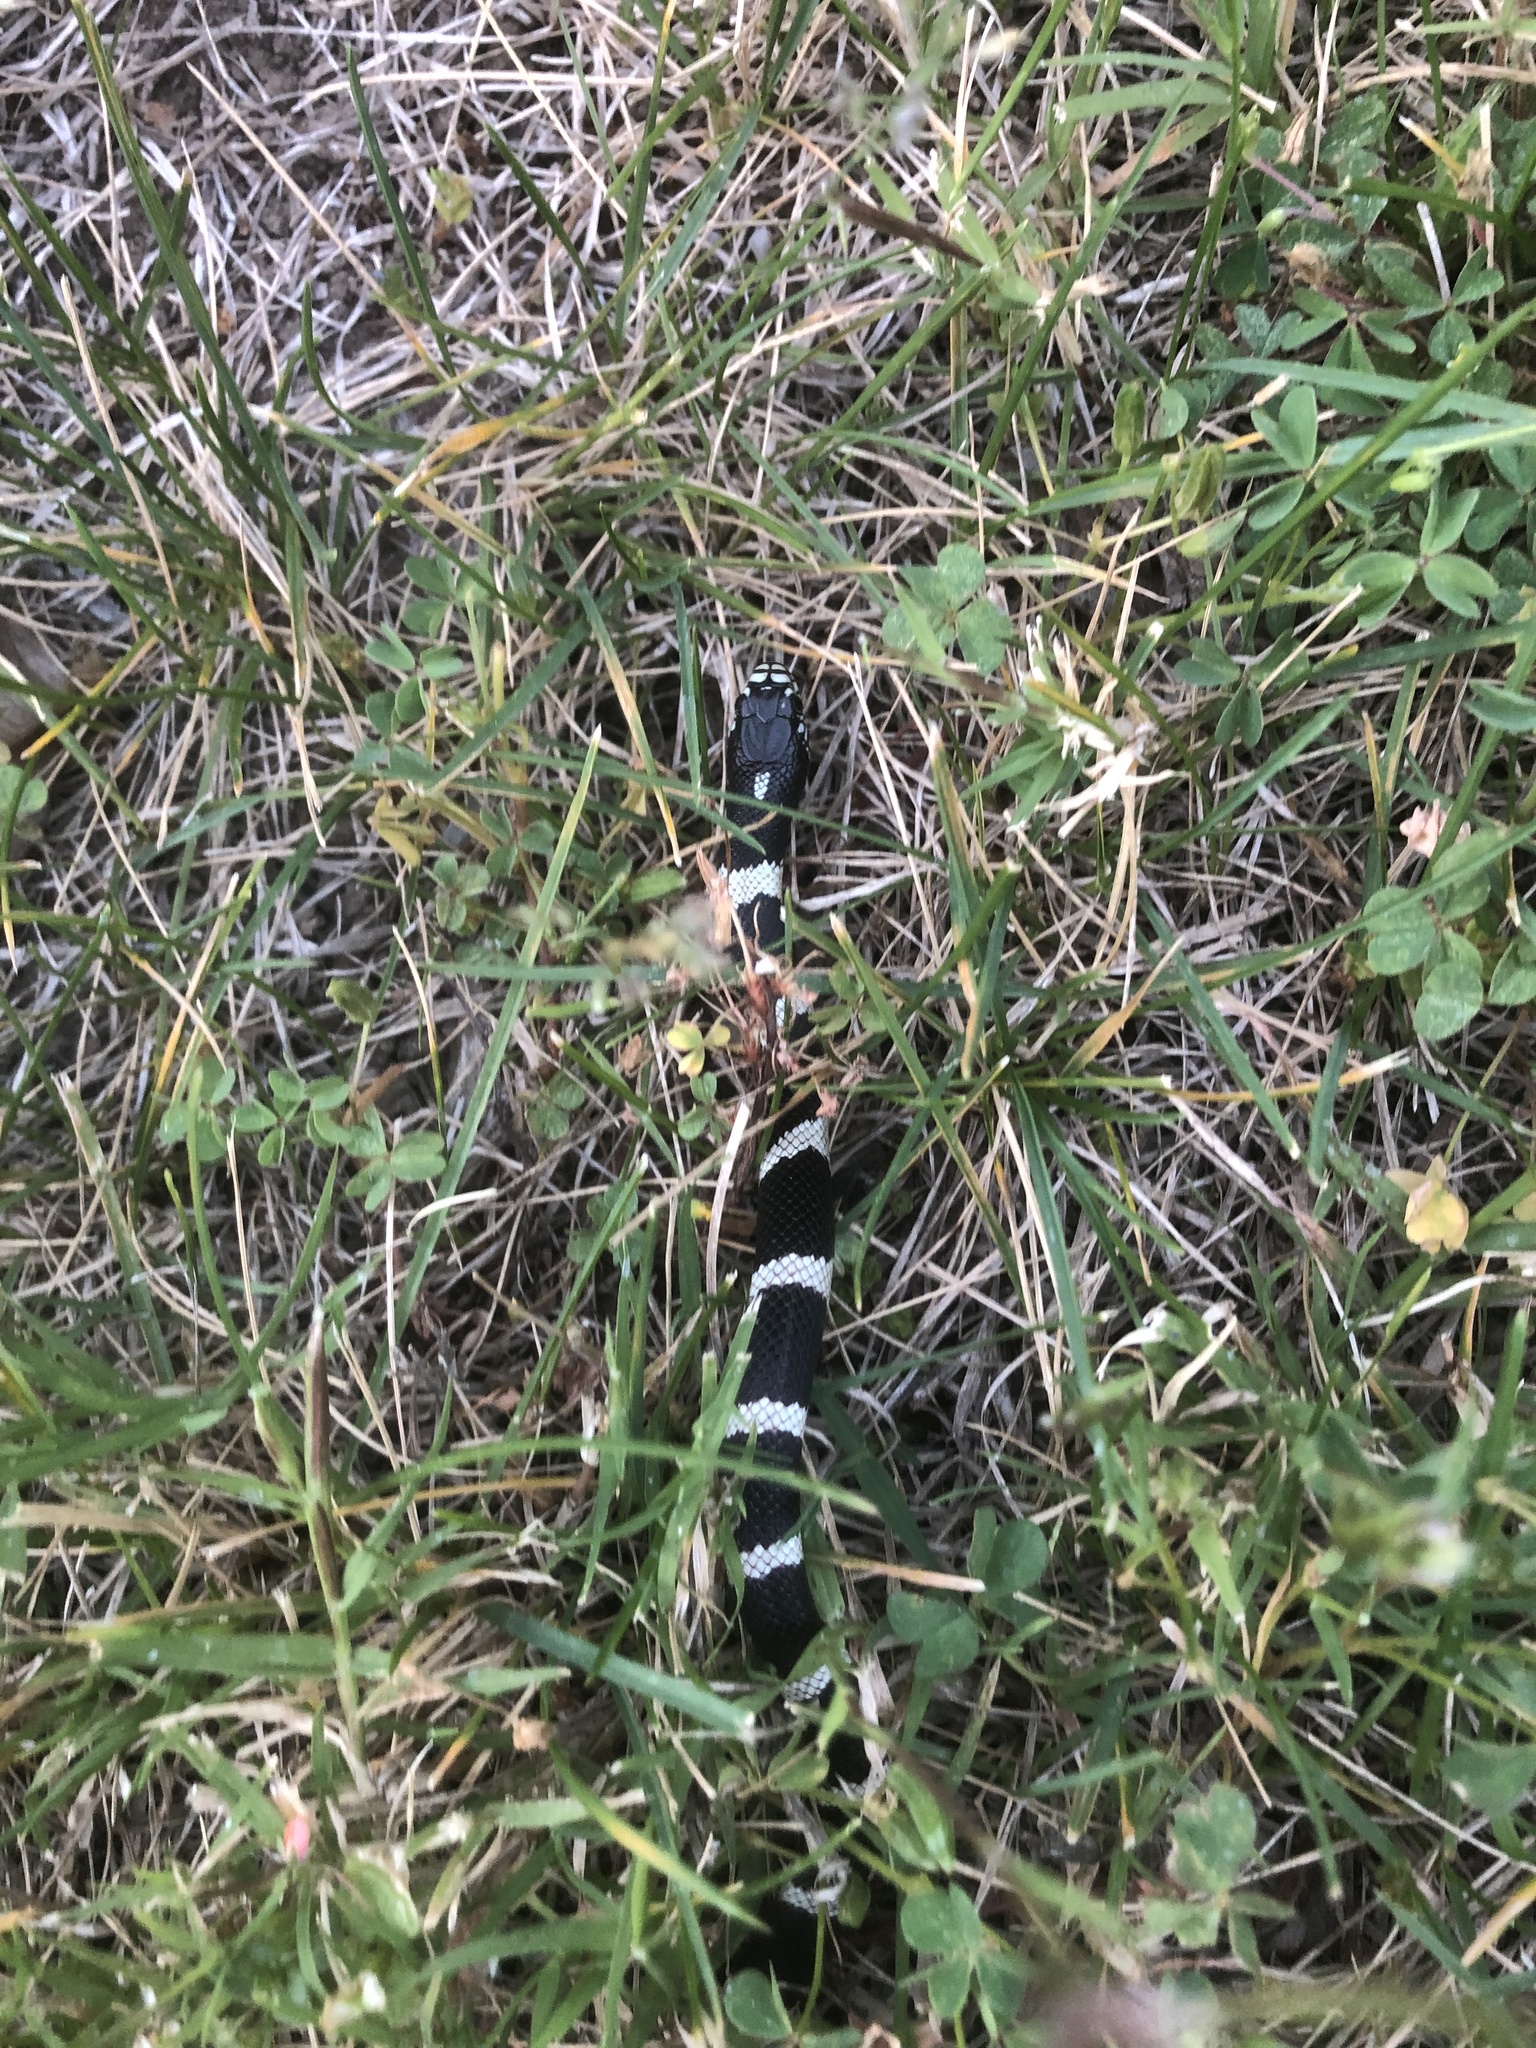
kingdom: Animalia
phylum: Chordata
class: Squamata
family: Colubridae
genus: Lampropeltis
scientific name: Lampropeltis californiae
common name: California kingsnake
